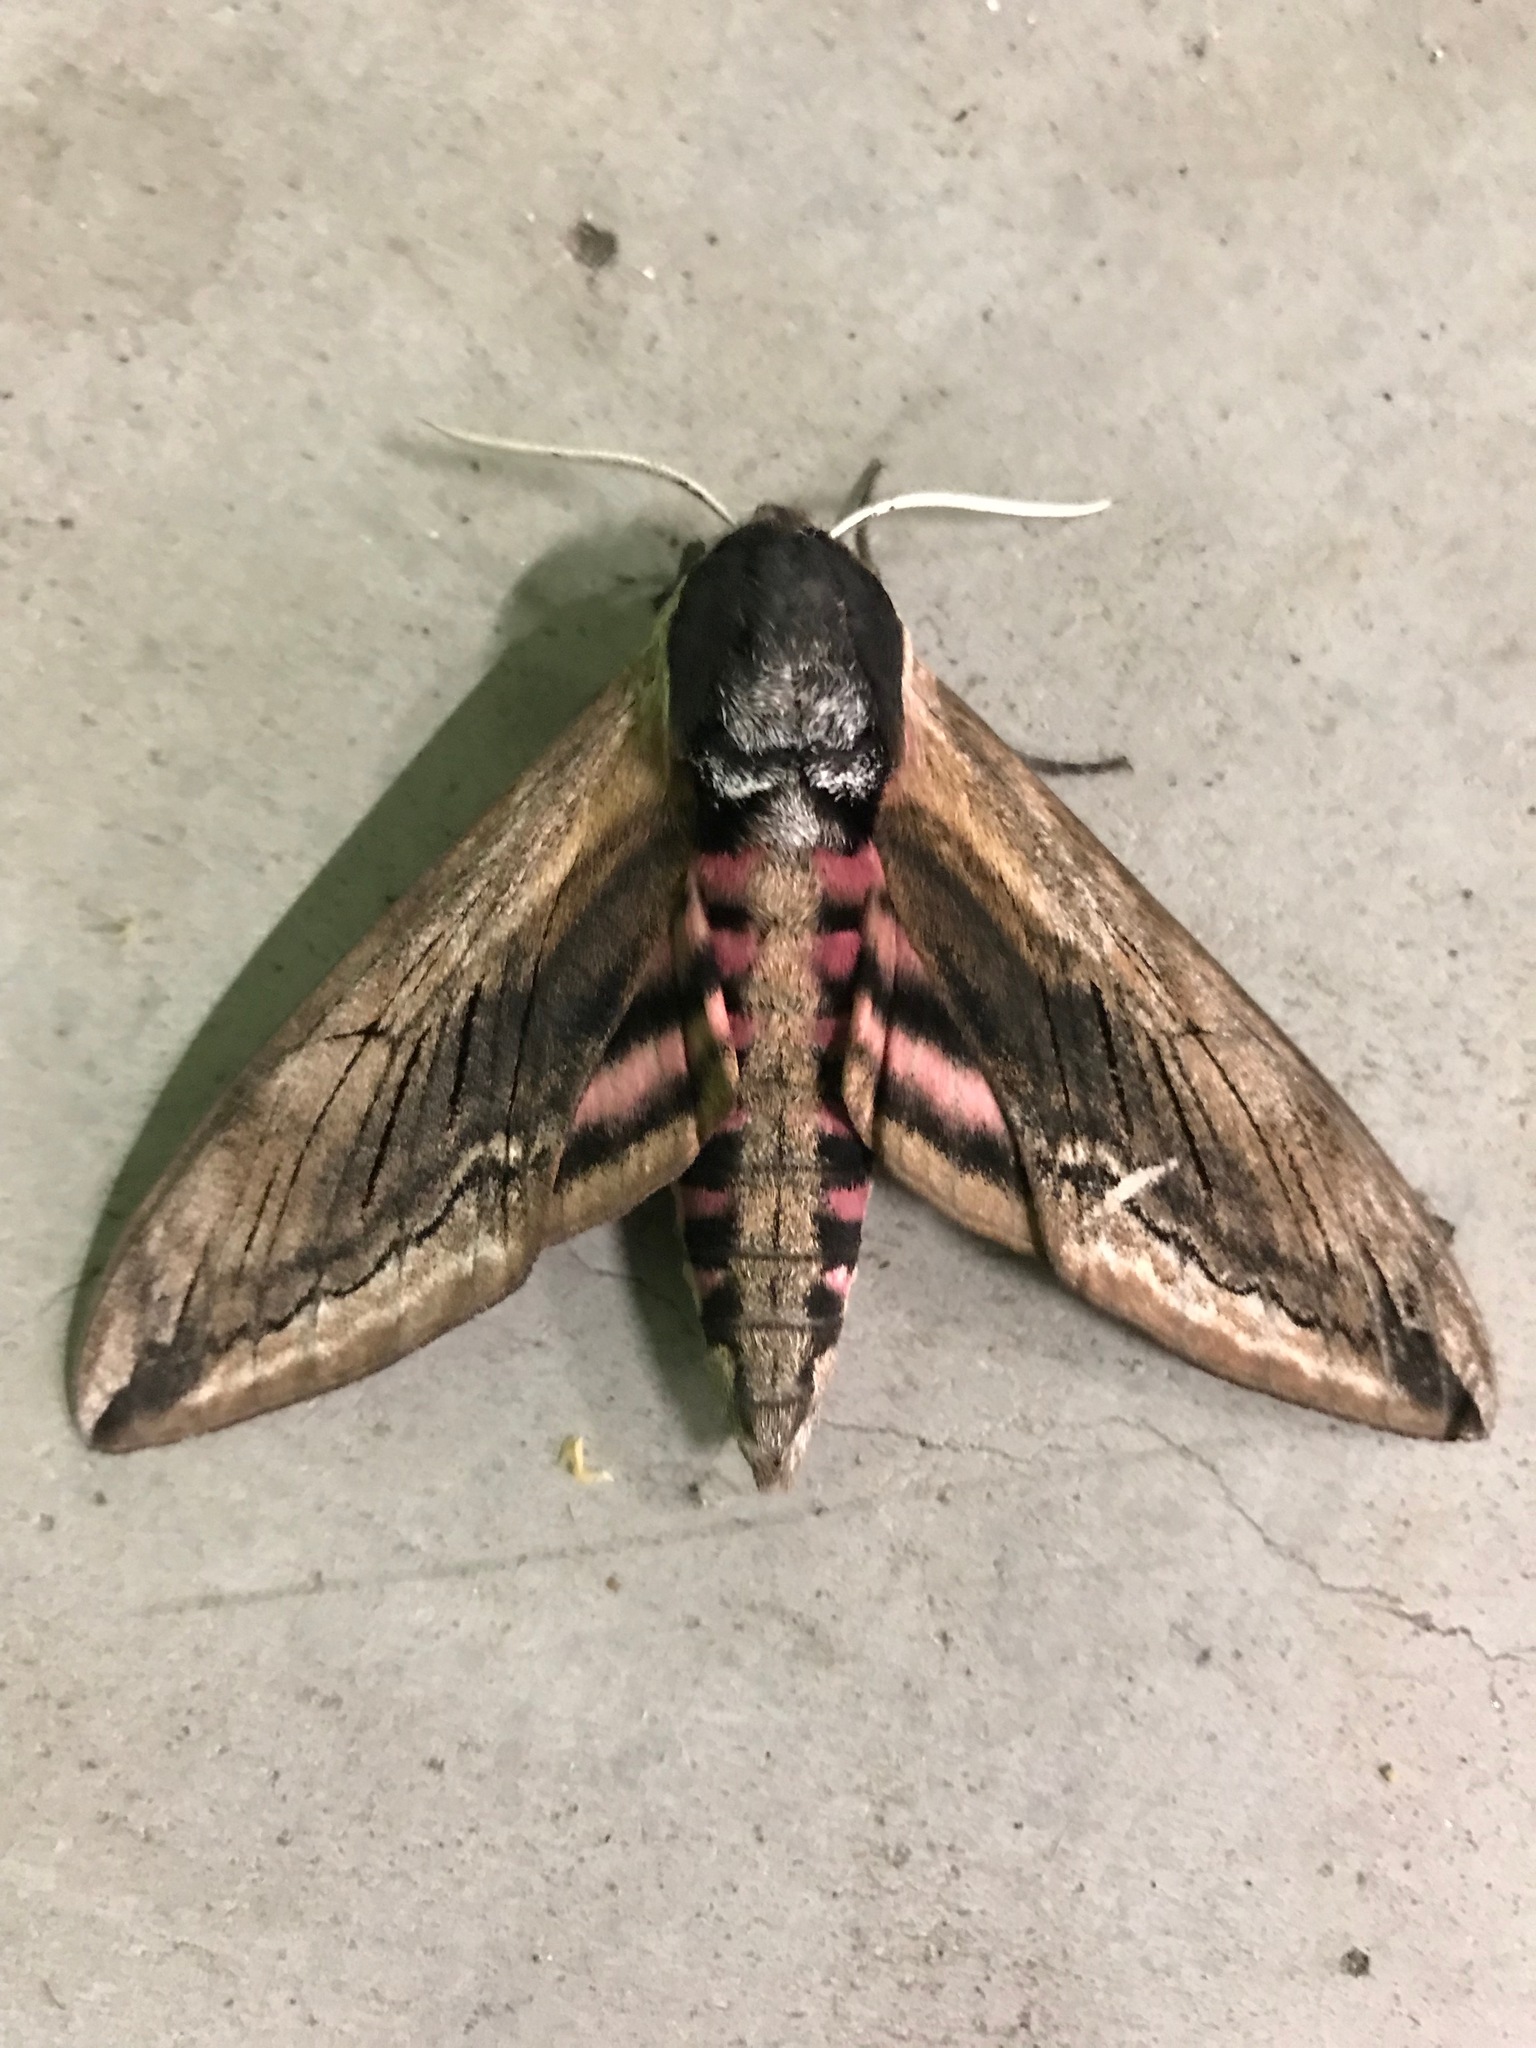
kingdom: Animalia
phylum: Arthropoda
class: Insecta
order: Lepidoptera
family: Sphingidae
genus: Sphinx
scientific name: Sphinx ligustri
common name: Privet hawk-moth
